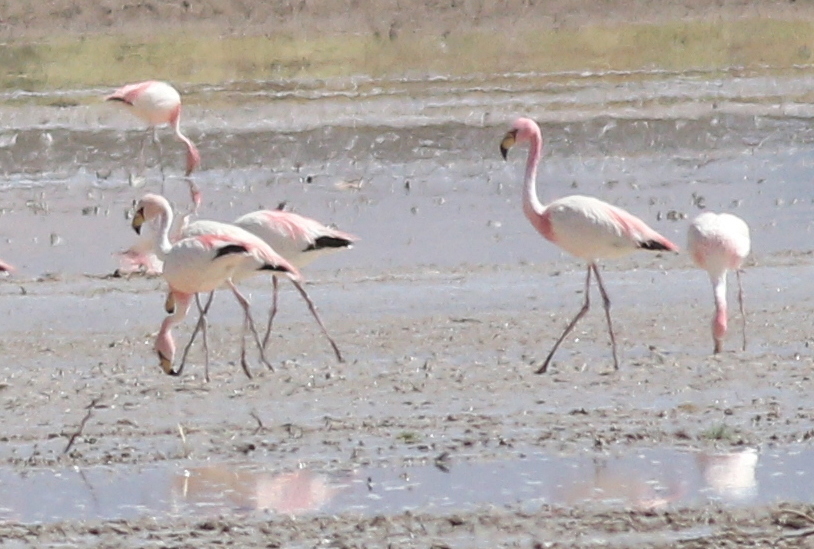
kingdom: Animalia
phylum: Chordata
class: Aves
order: Phoenicopteriformes
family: Phoenicopteridae
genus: Phoenicoparrus
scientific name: Phoenicoparrus jamesi
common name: James's flamingo
